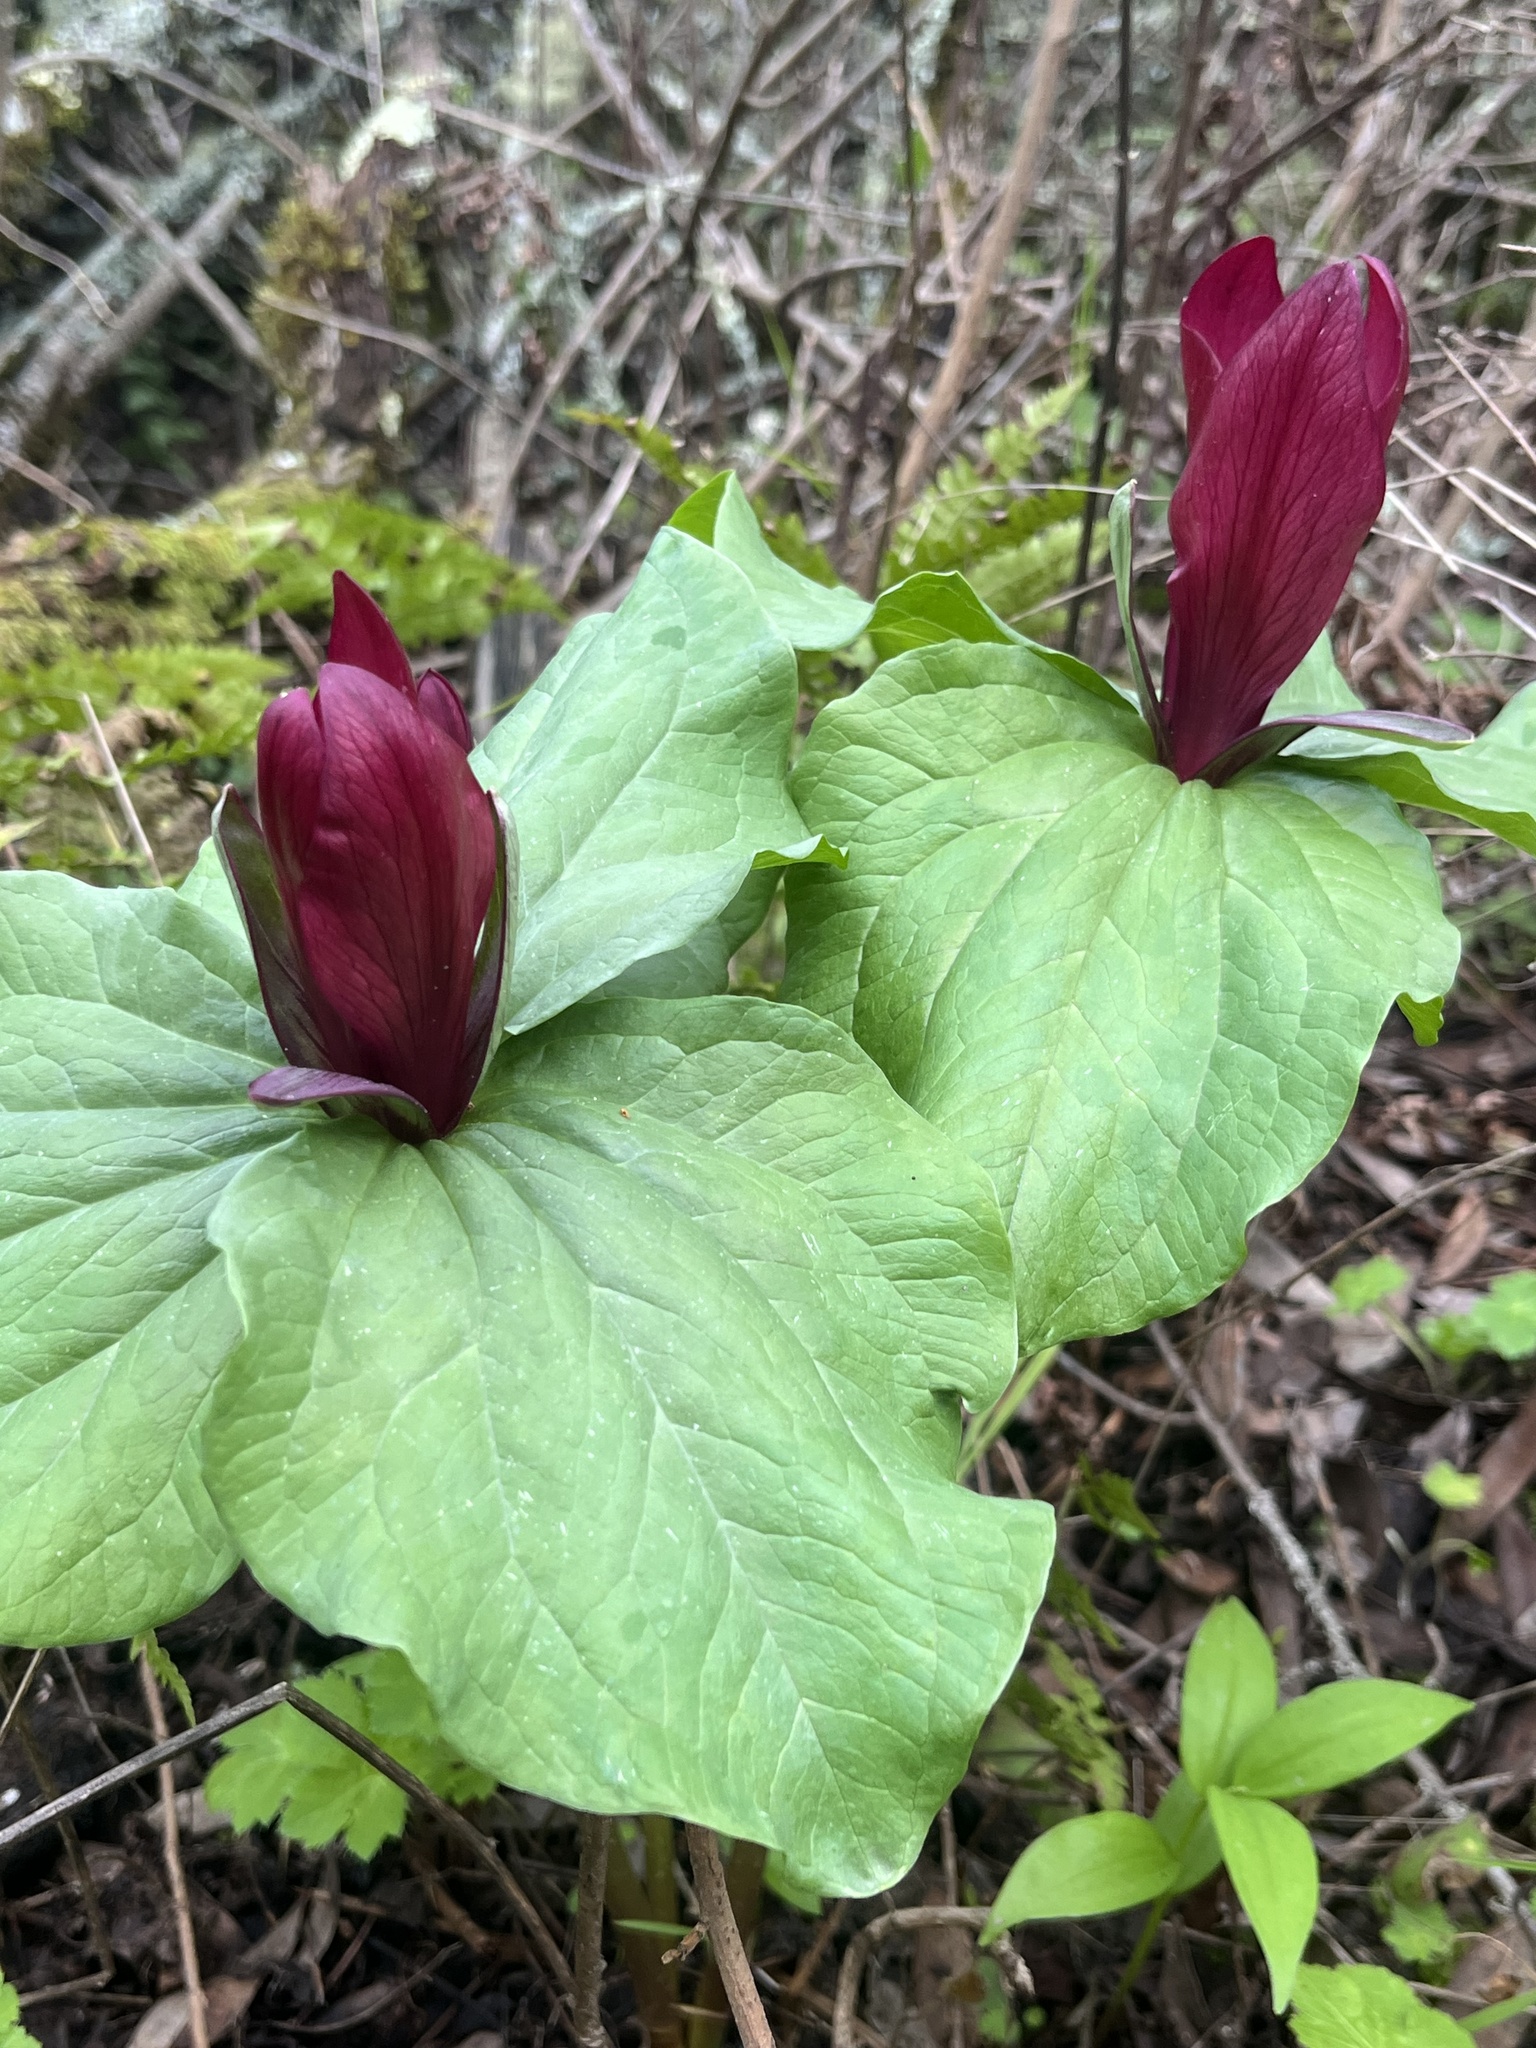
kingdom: Plantae
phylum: Tracheophyta
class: Liliopsida
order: Liliales
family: Melanthiaceae
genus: Trillium
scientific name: Trillium chloropetalum
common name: Giant trillium
